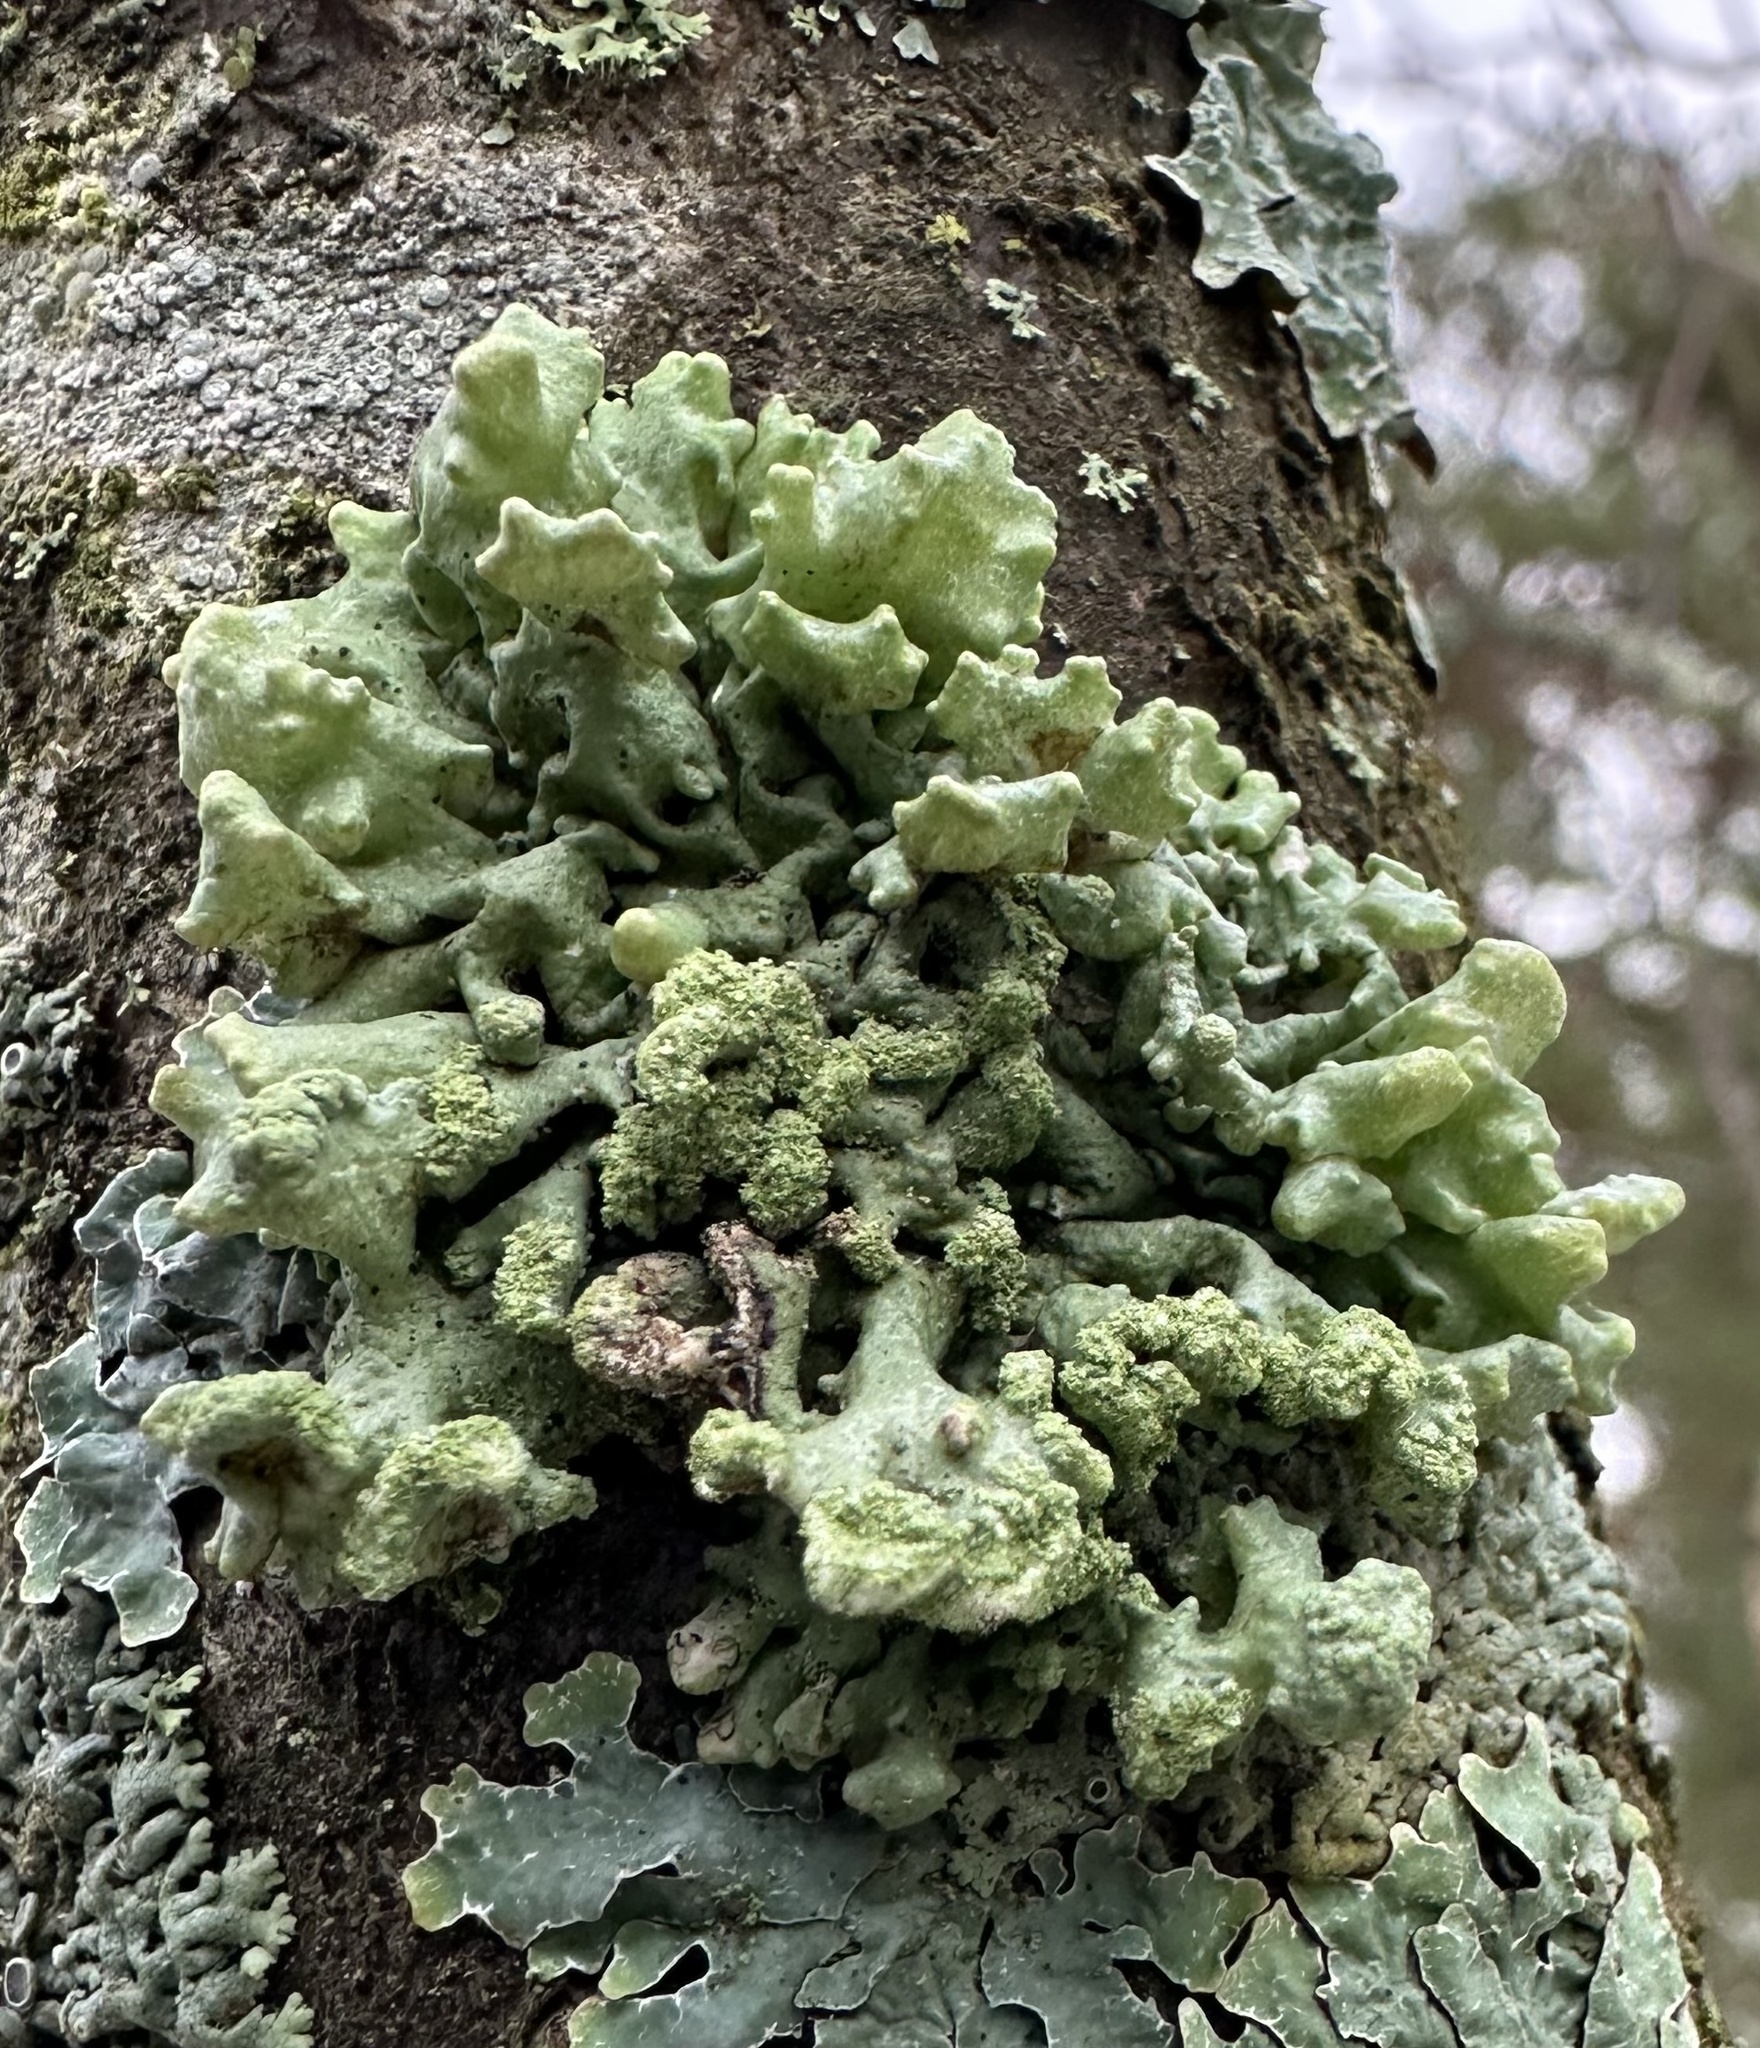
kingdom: Fungi
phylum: Ascomycota
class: Lecanoromycetes
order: Lecanorales
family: Parmeliaceae
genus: Hypogymnia
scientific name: Hypogymnia tubulosa
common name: Powder-headed tube lichen
